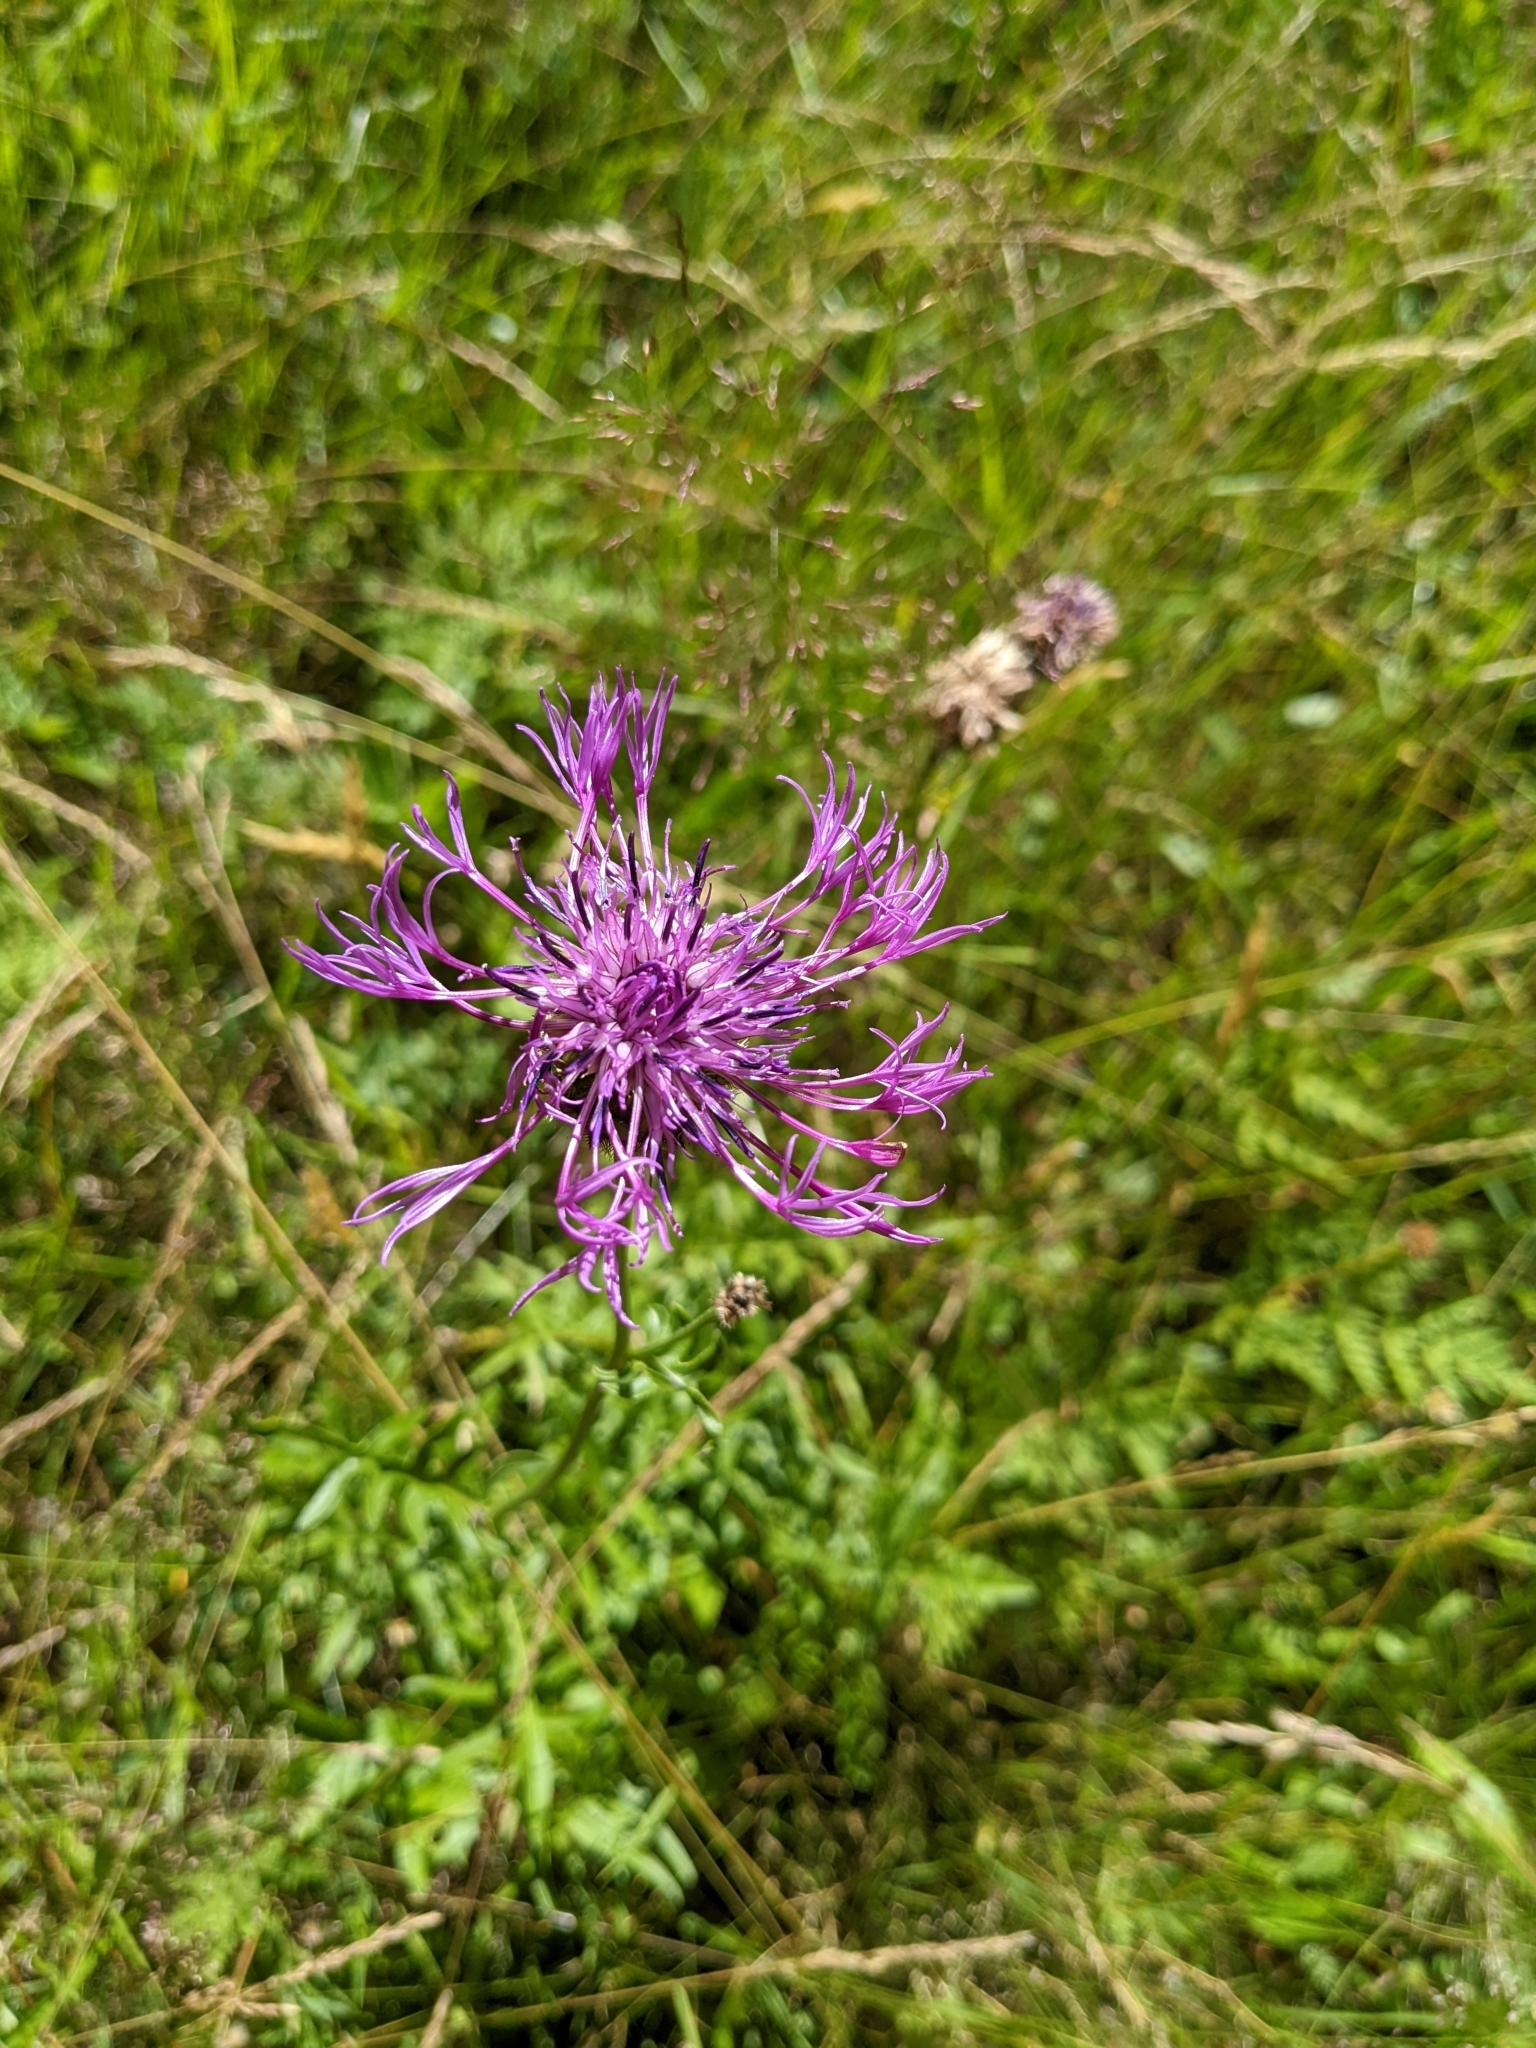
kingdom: Plantae
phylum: Tracheophyta
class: Magnoliopsida
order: Asterales
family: Asteraceae
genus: Centaurea
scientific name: Centaurea scabiosa
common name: Greater knapweed
